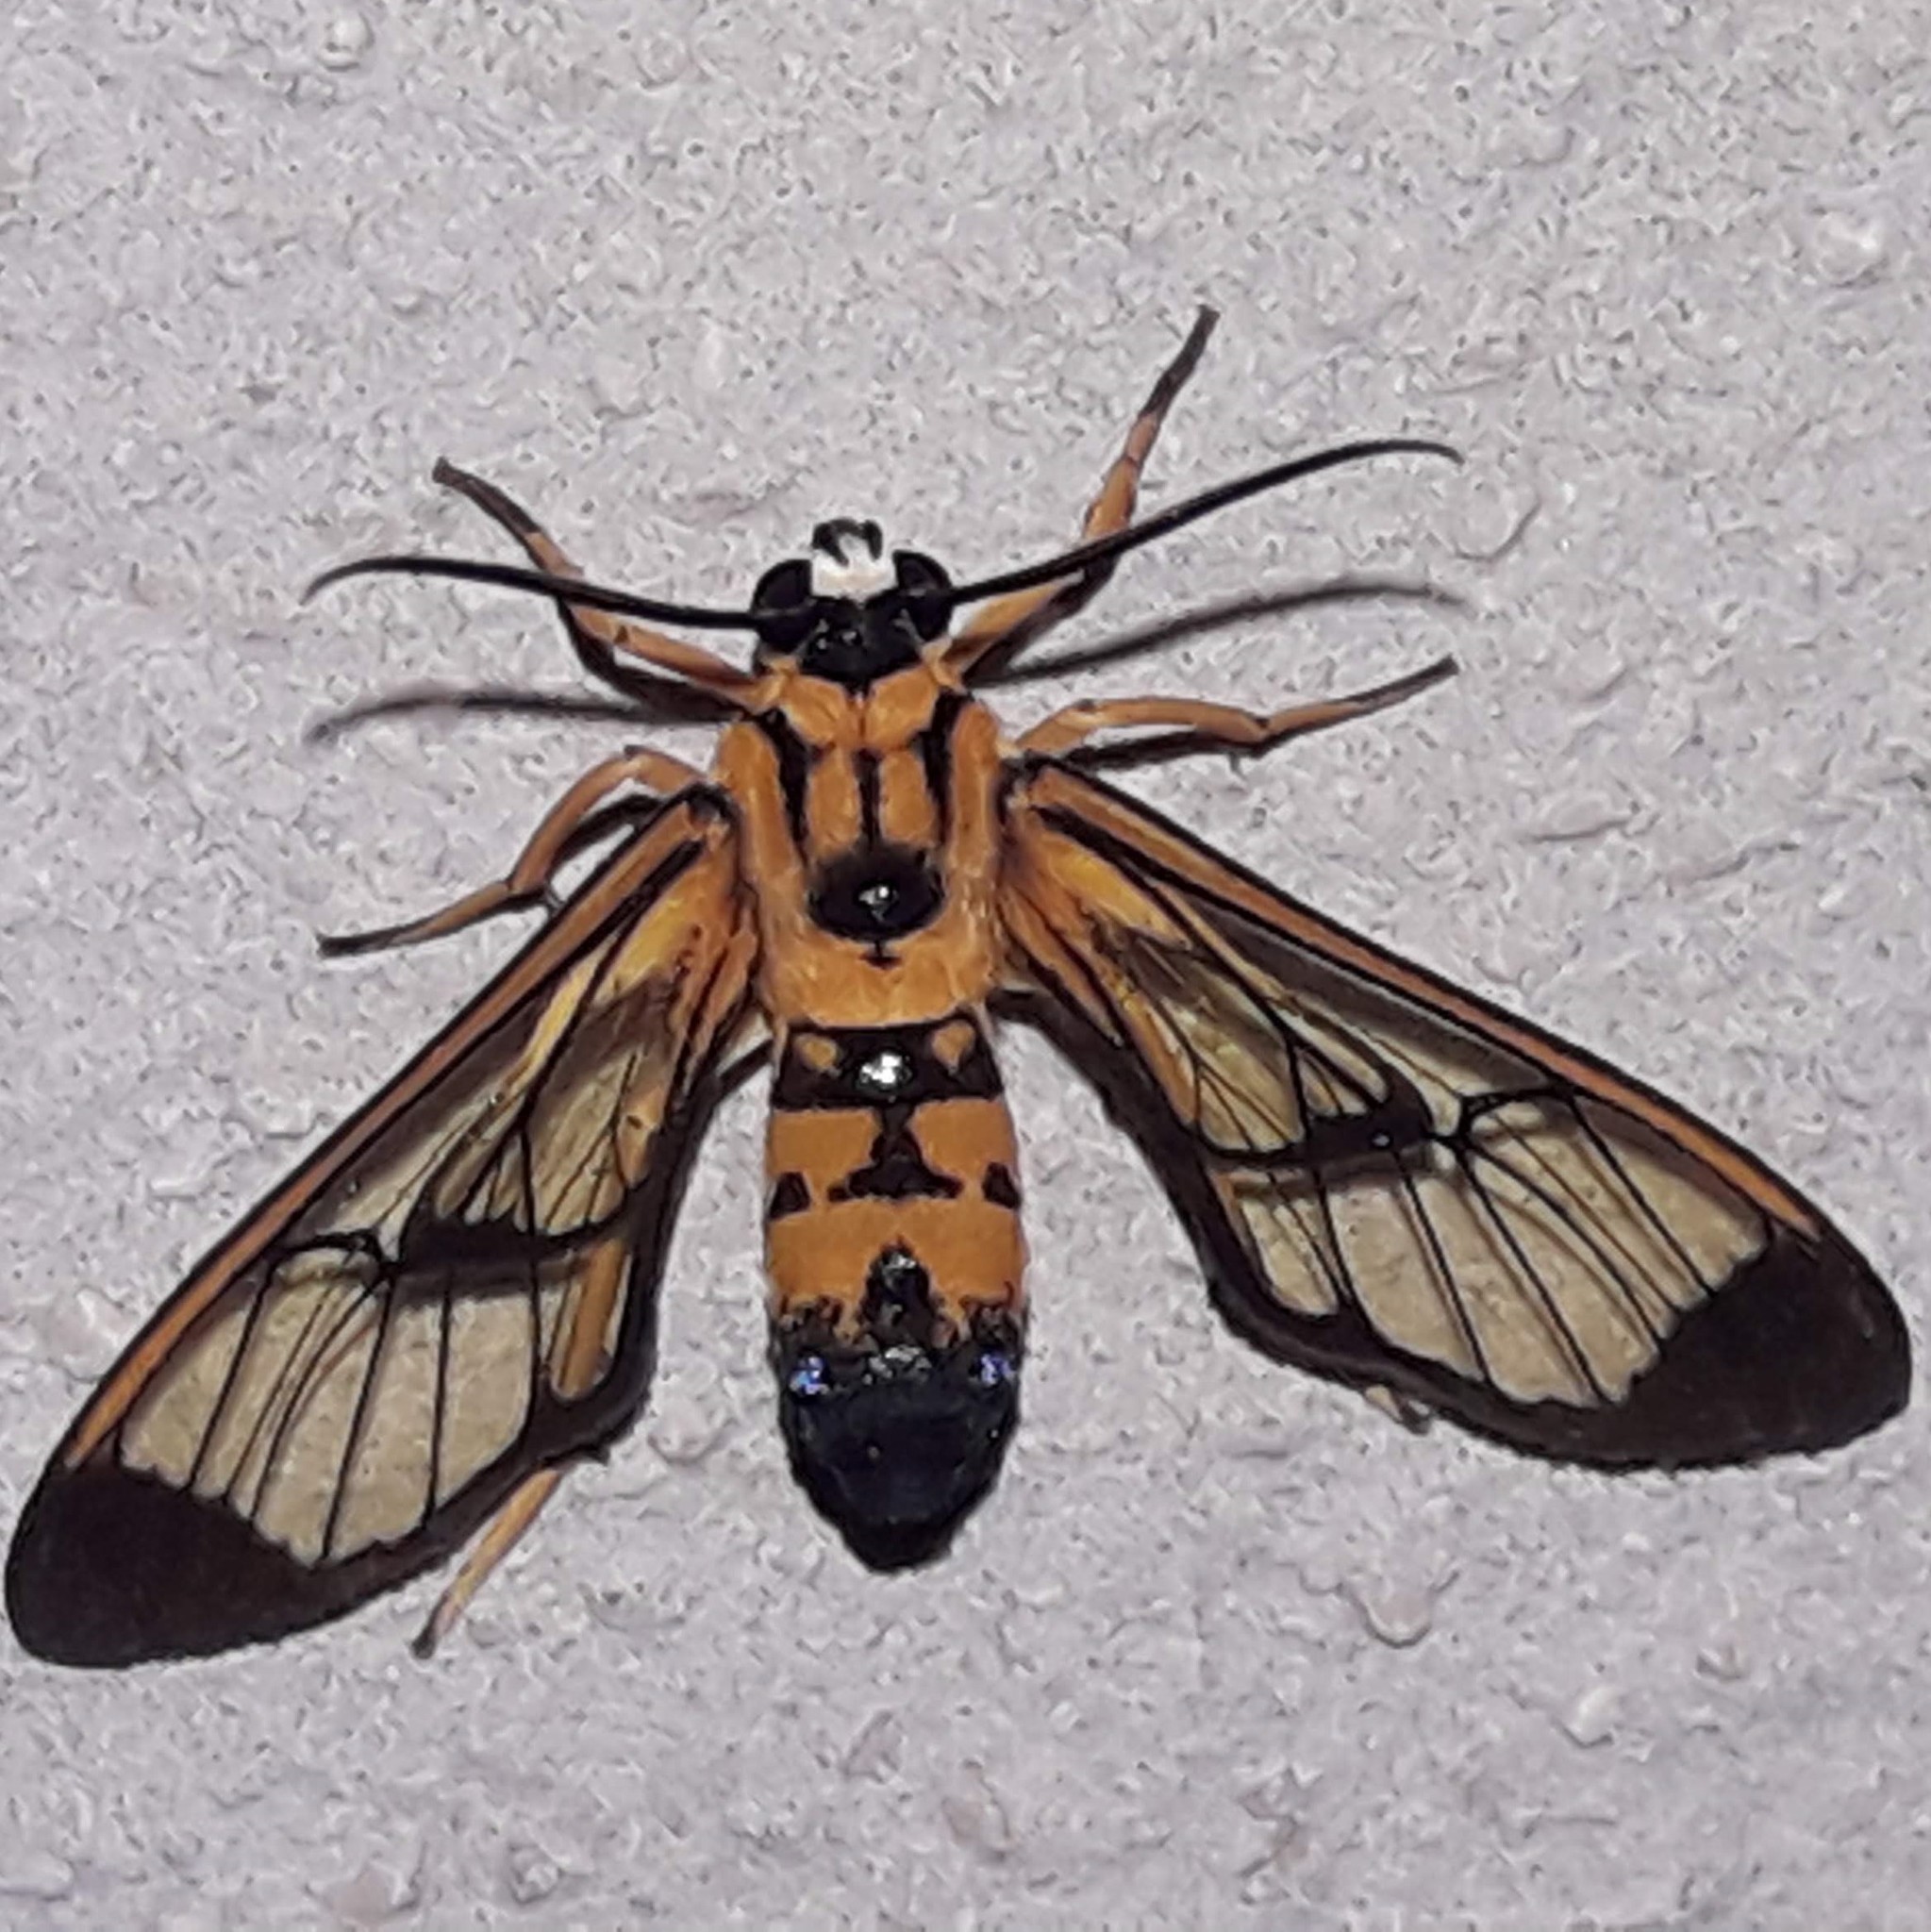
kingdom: Animalia
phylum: Arthropoda
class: Insecta
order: Lepidoptera
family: Erebidae
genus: Pheia
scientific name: Pheia elegans
